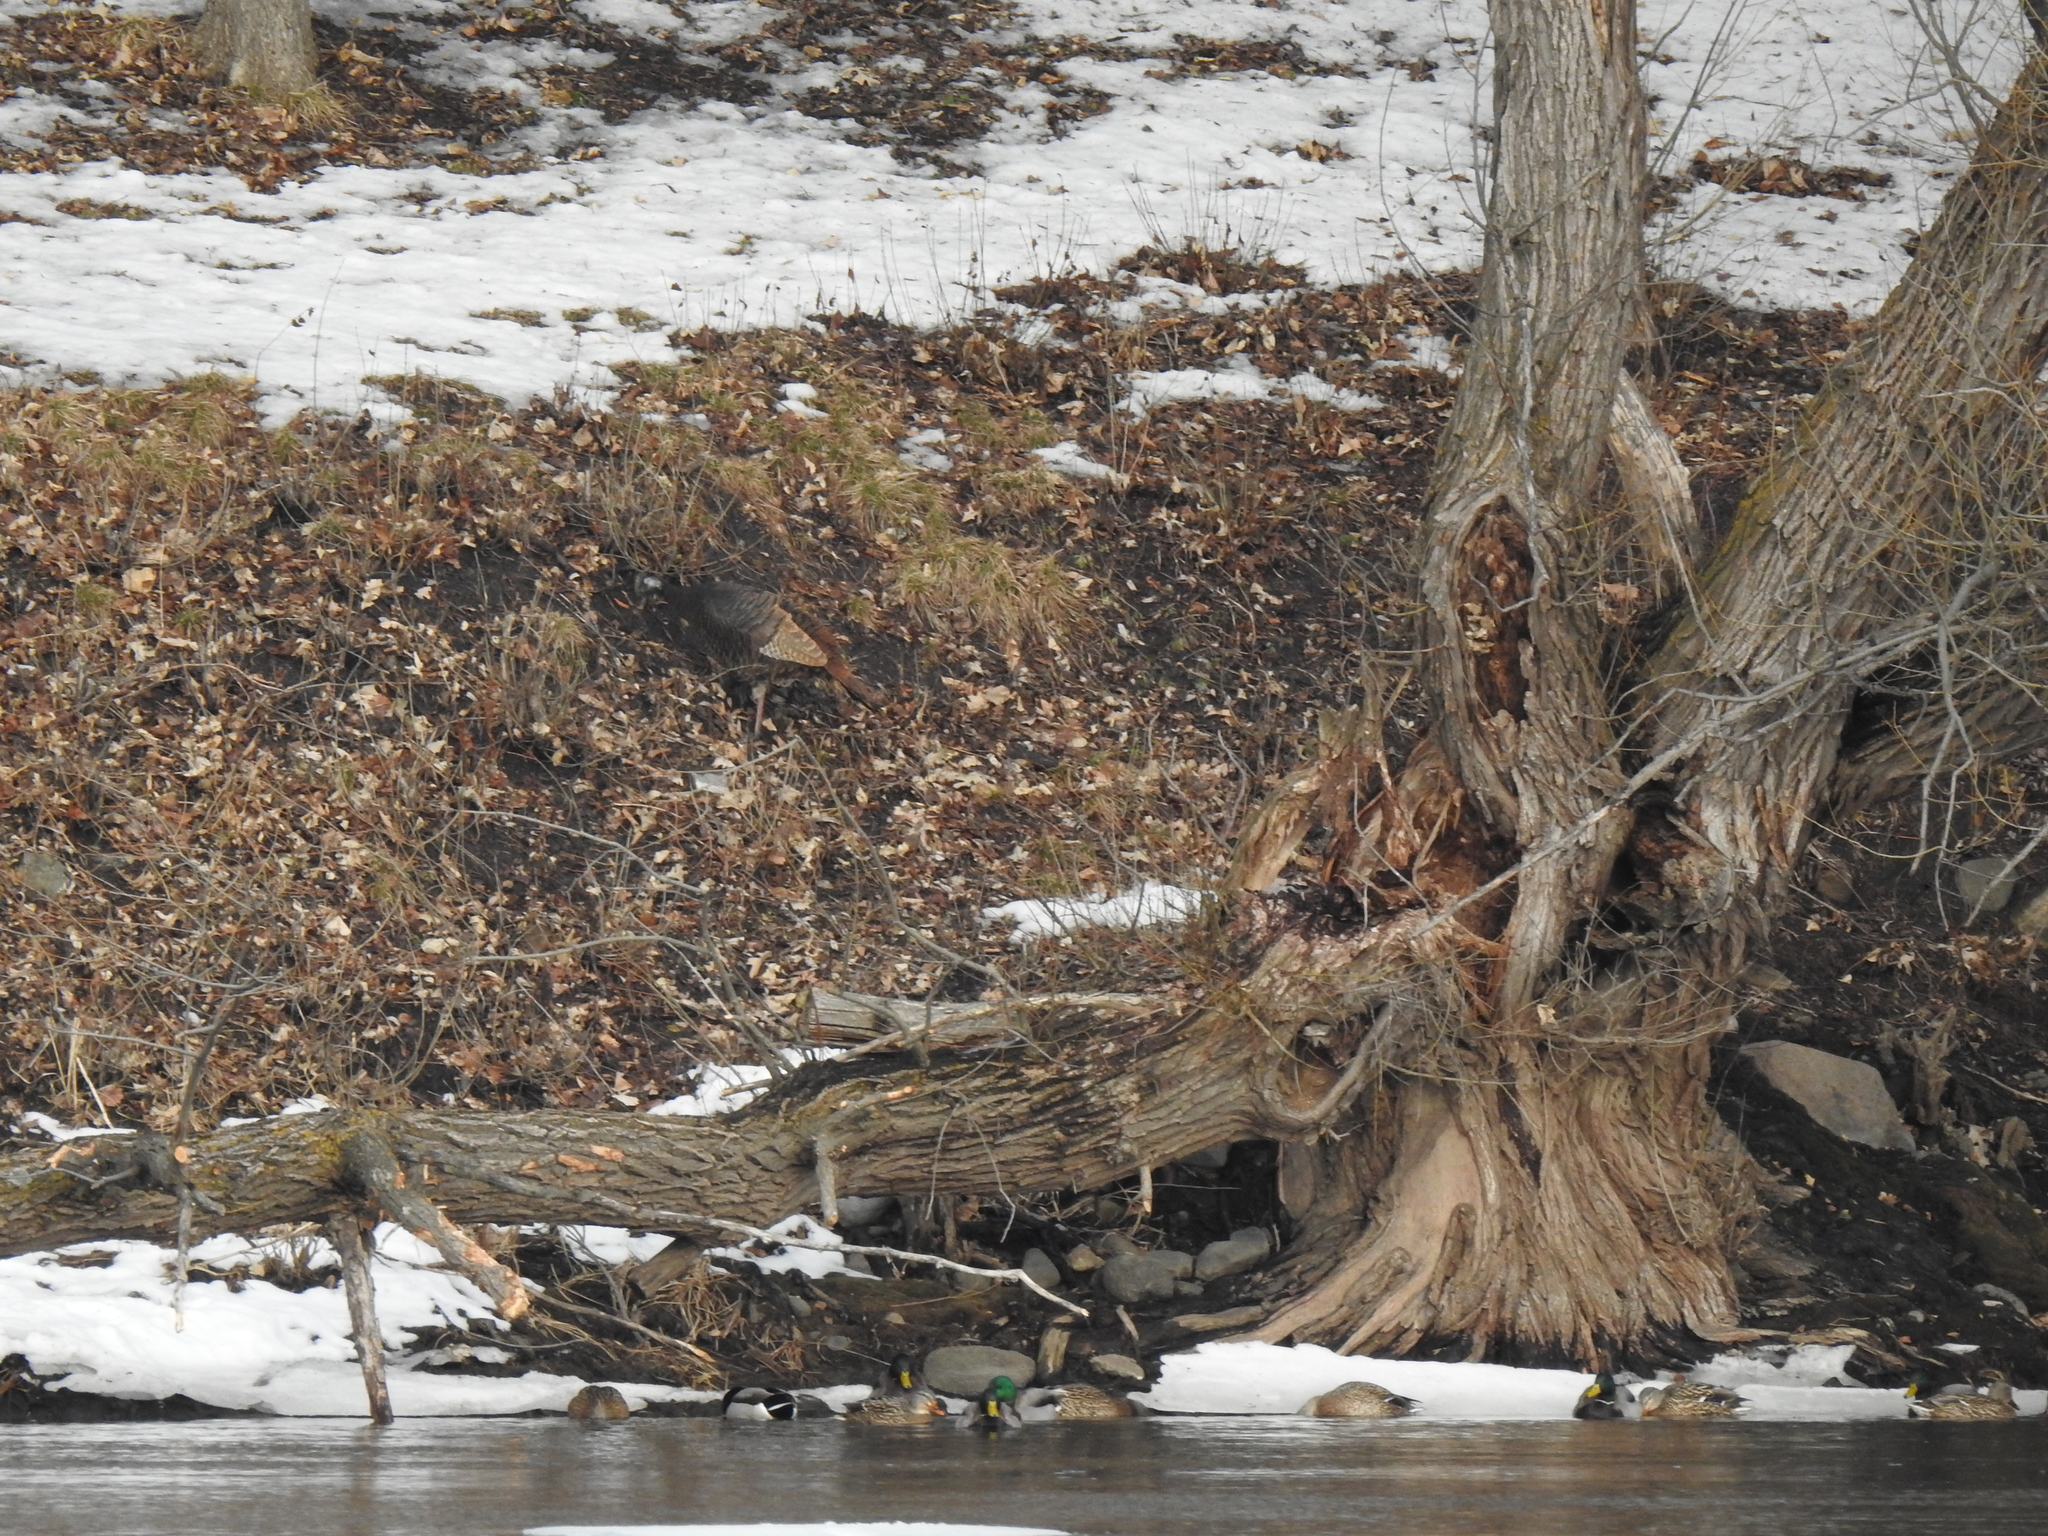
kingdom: Animalia
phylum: Chordata
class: Aves
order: Galliformes
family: Phasianidae
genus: Meleagris
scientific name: Meleagris gallopavo
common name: Wild turkey
